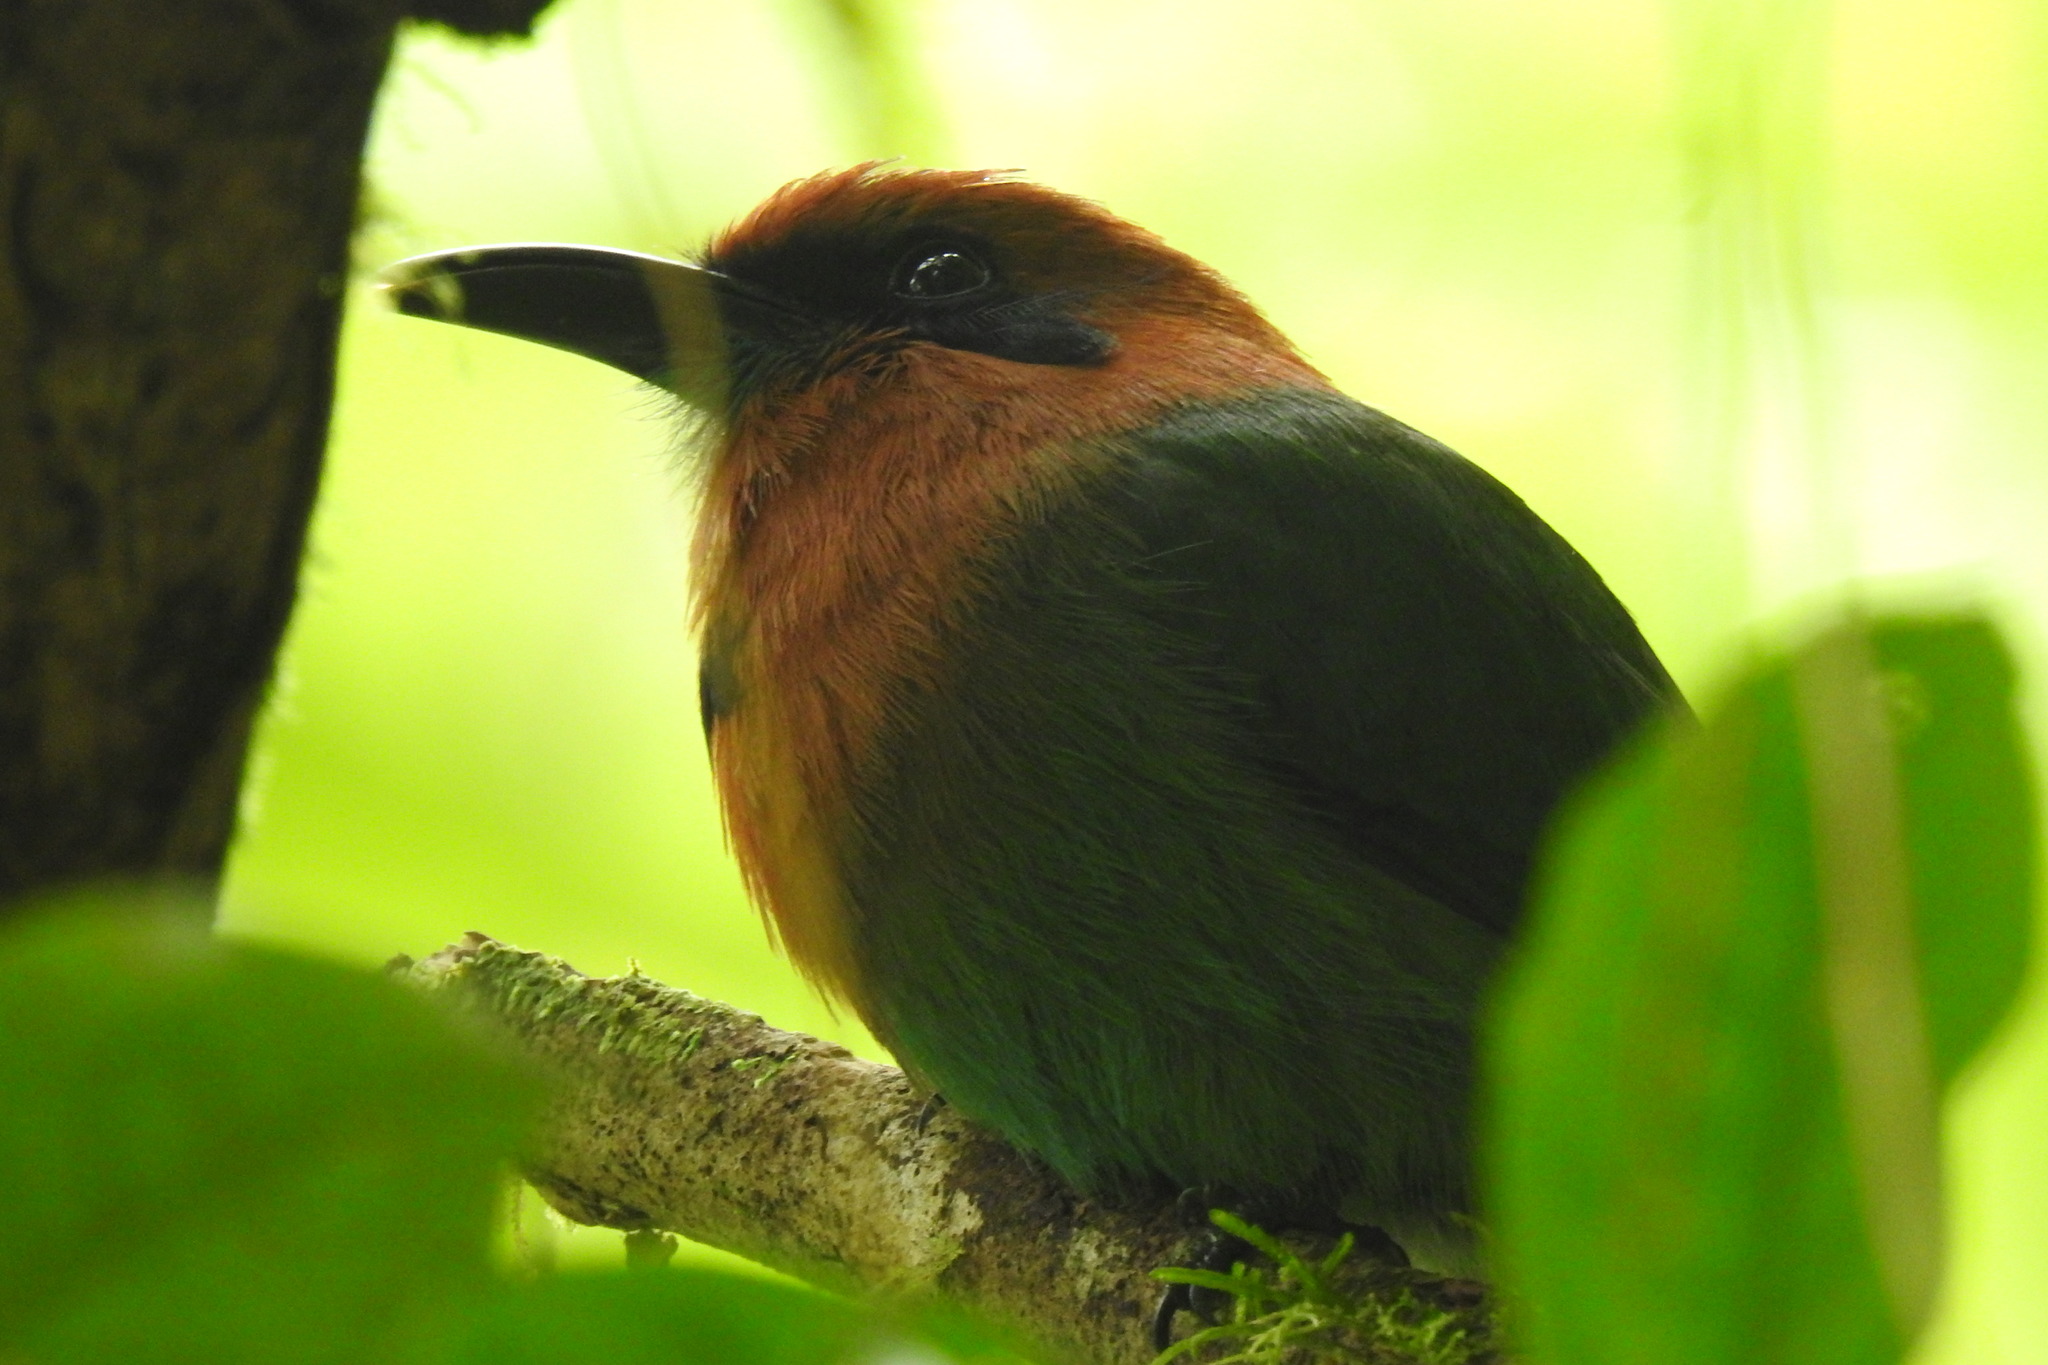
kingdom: Animalia
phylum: Chordata
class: Aves
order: Coraciiformes
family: Momotidae
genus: Electron
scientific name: Electron platyrhynchum
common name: Broad-billed motmot
